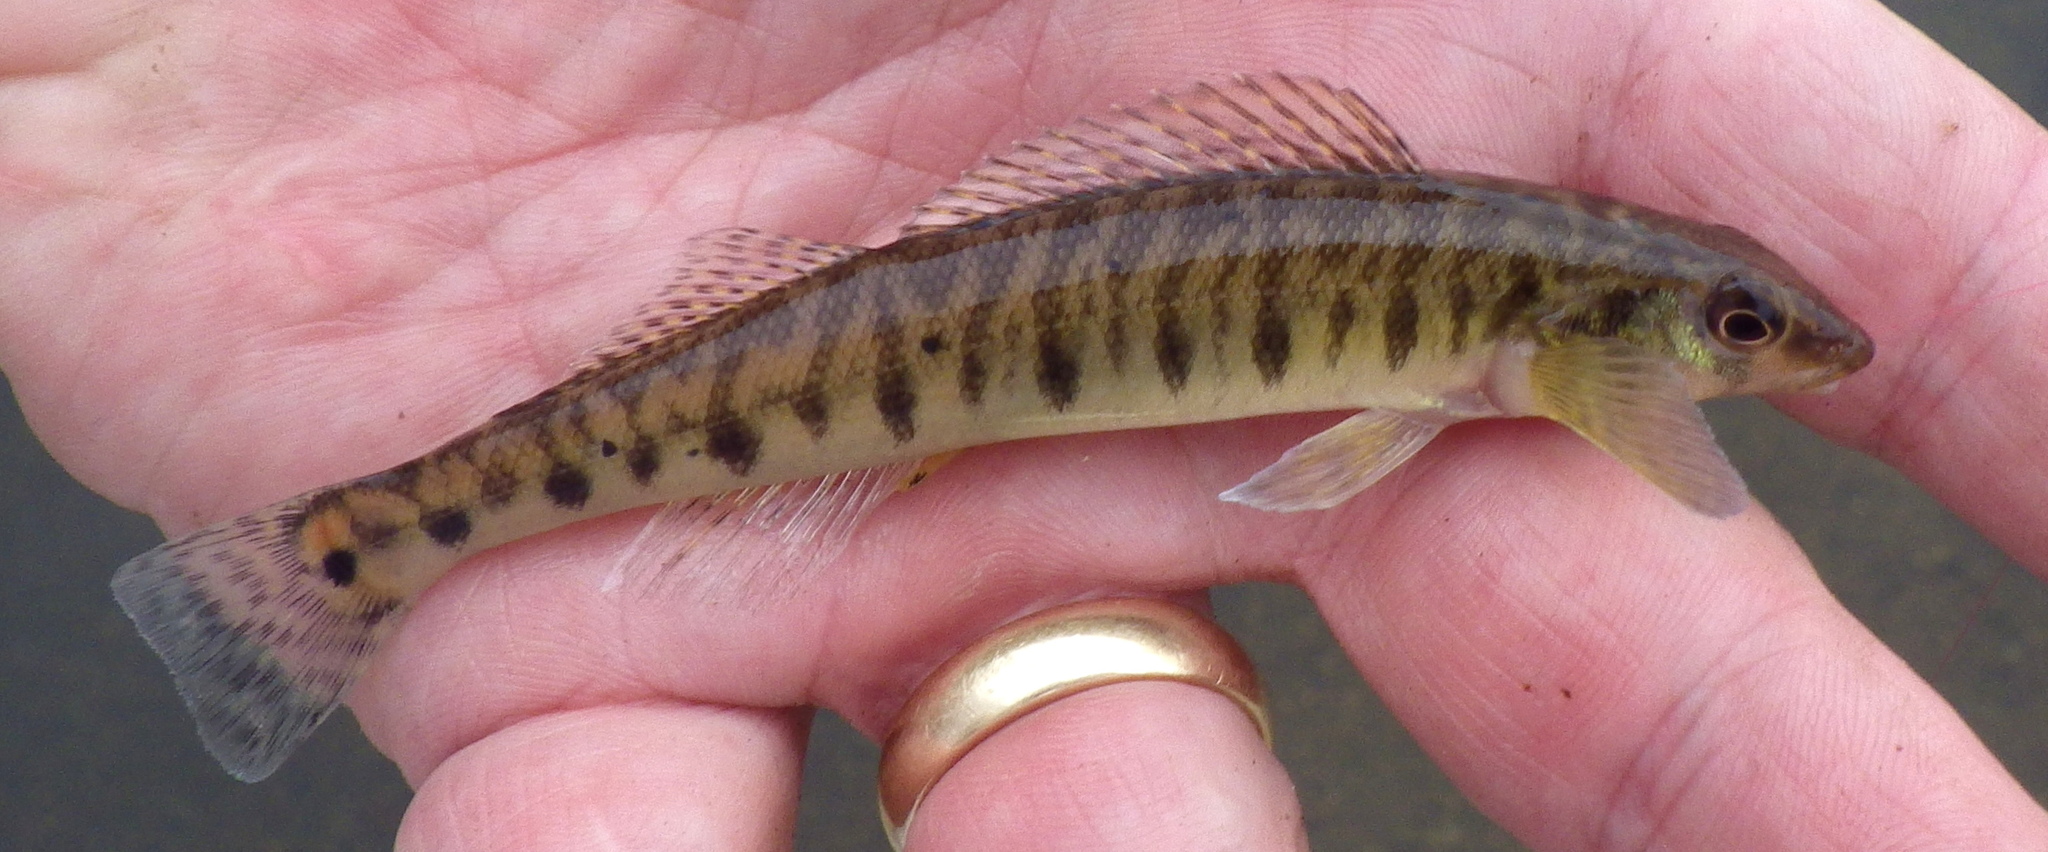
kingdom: Animalia
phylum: Chordata
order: Perciformes
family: Percidae
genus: Percina
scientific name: Percina caprodes
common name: Logperch
